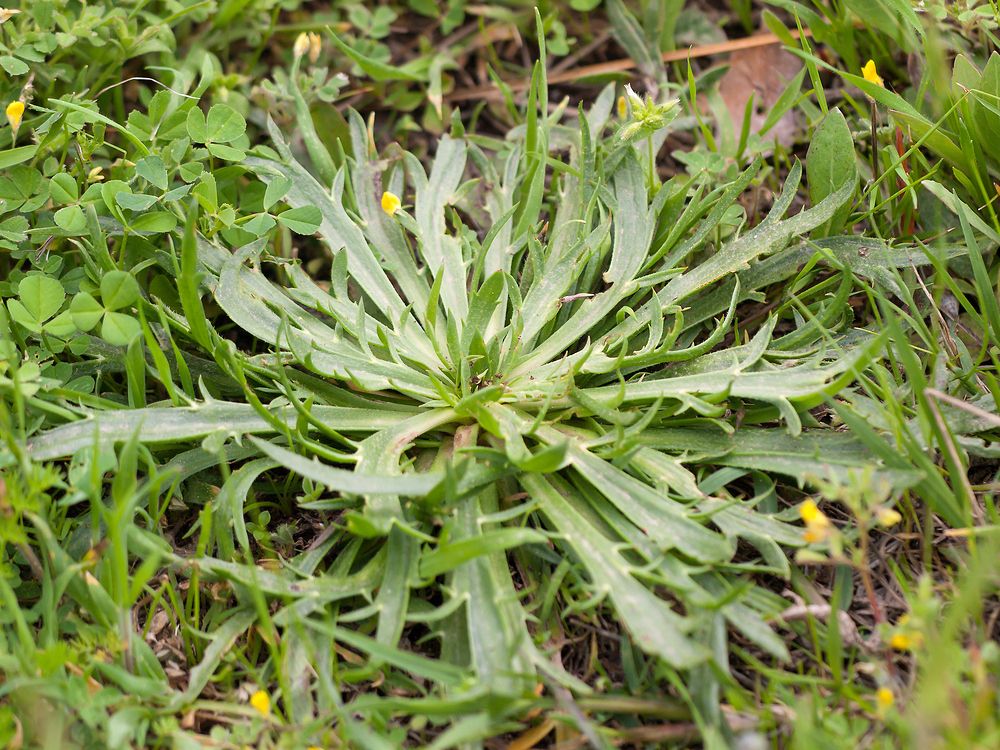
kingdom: Plantae
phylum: Tracheophyta
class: Magnoliopsida
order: Lamiales
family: Plantaginaceae
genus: Plantago
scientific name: Plantago coronopus
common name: Buck's-horn plantain
